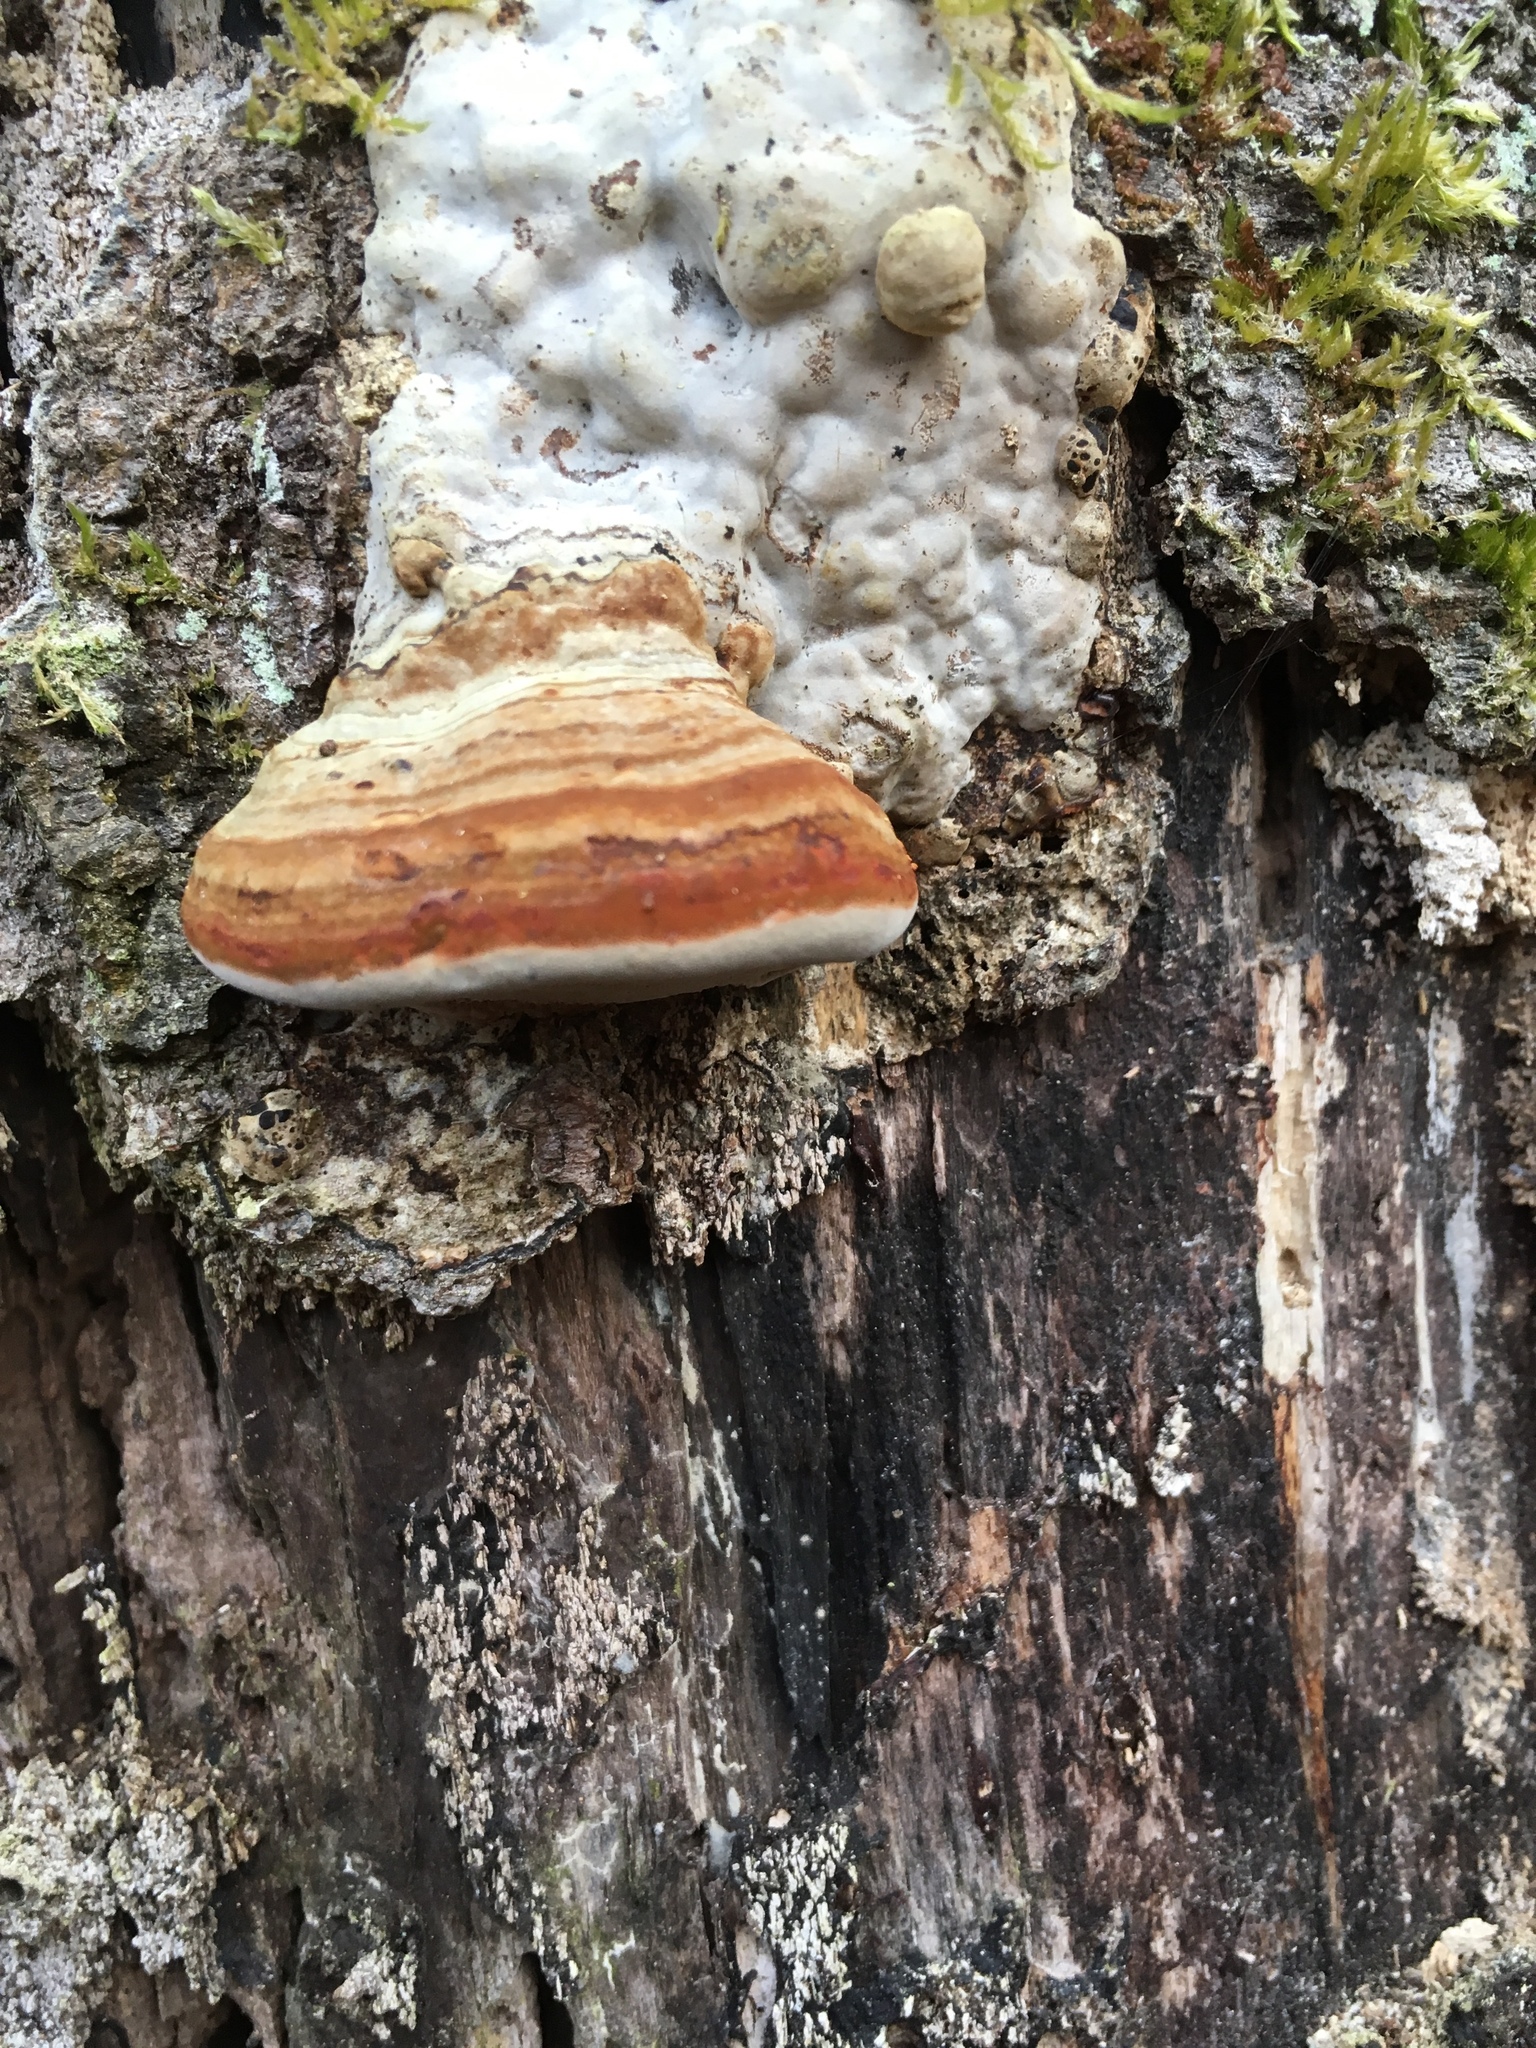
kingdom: Fungi
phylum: Basidiomycota
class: Agaricomycetes
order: Polyporales
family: Polyporaceae
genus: Fomes
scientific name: Fomes fomentarius
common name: Hoof fungus
